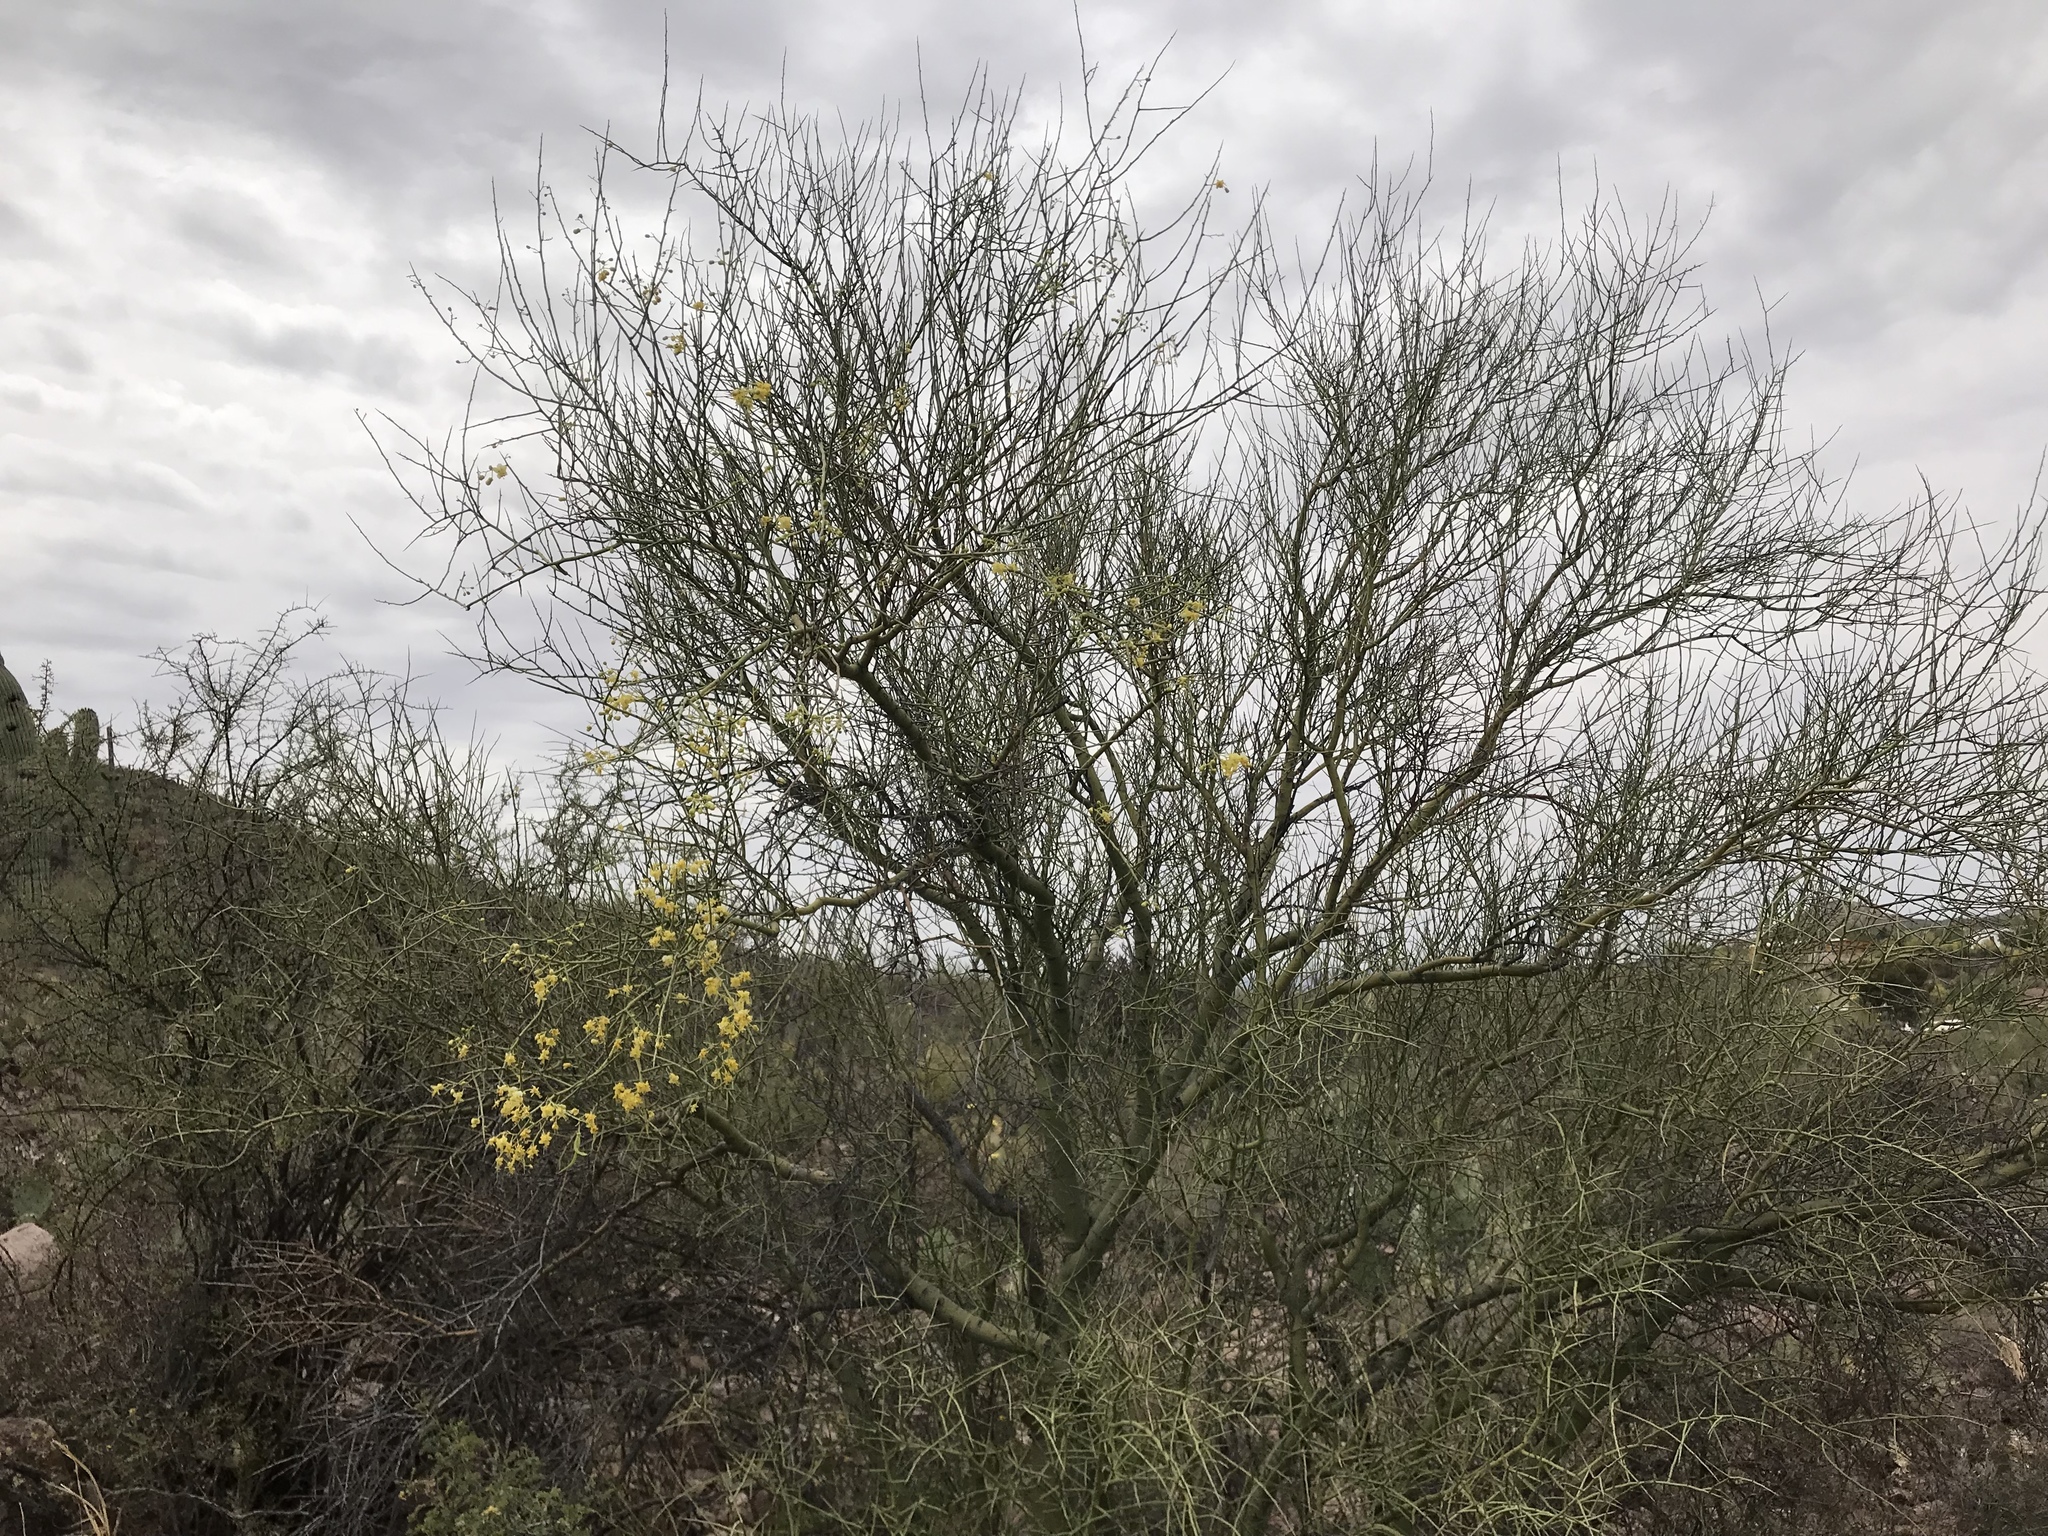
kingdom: Plantae
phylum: Tracheophyta
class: Magnoliopsida
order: Fabales
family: Fabaceae
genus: Parkinsonia
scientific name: Parkinsonia florida
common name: Blue paloverde
